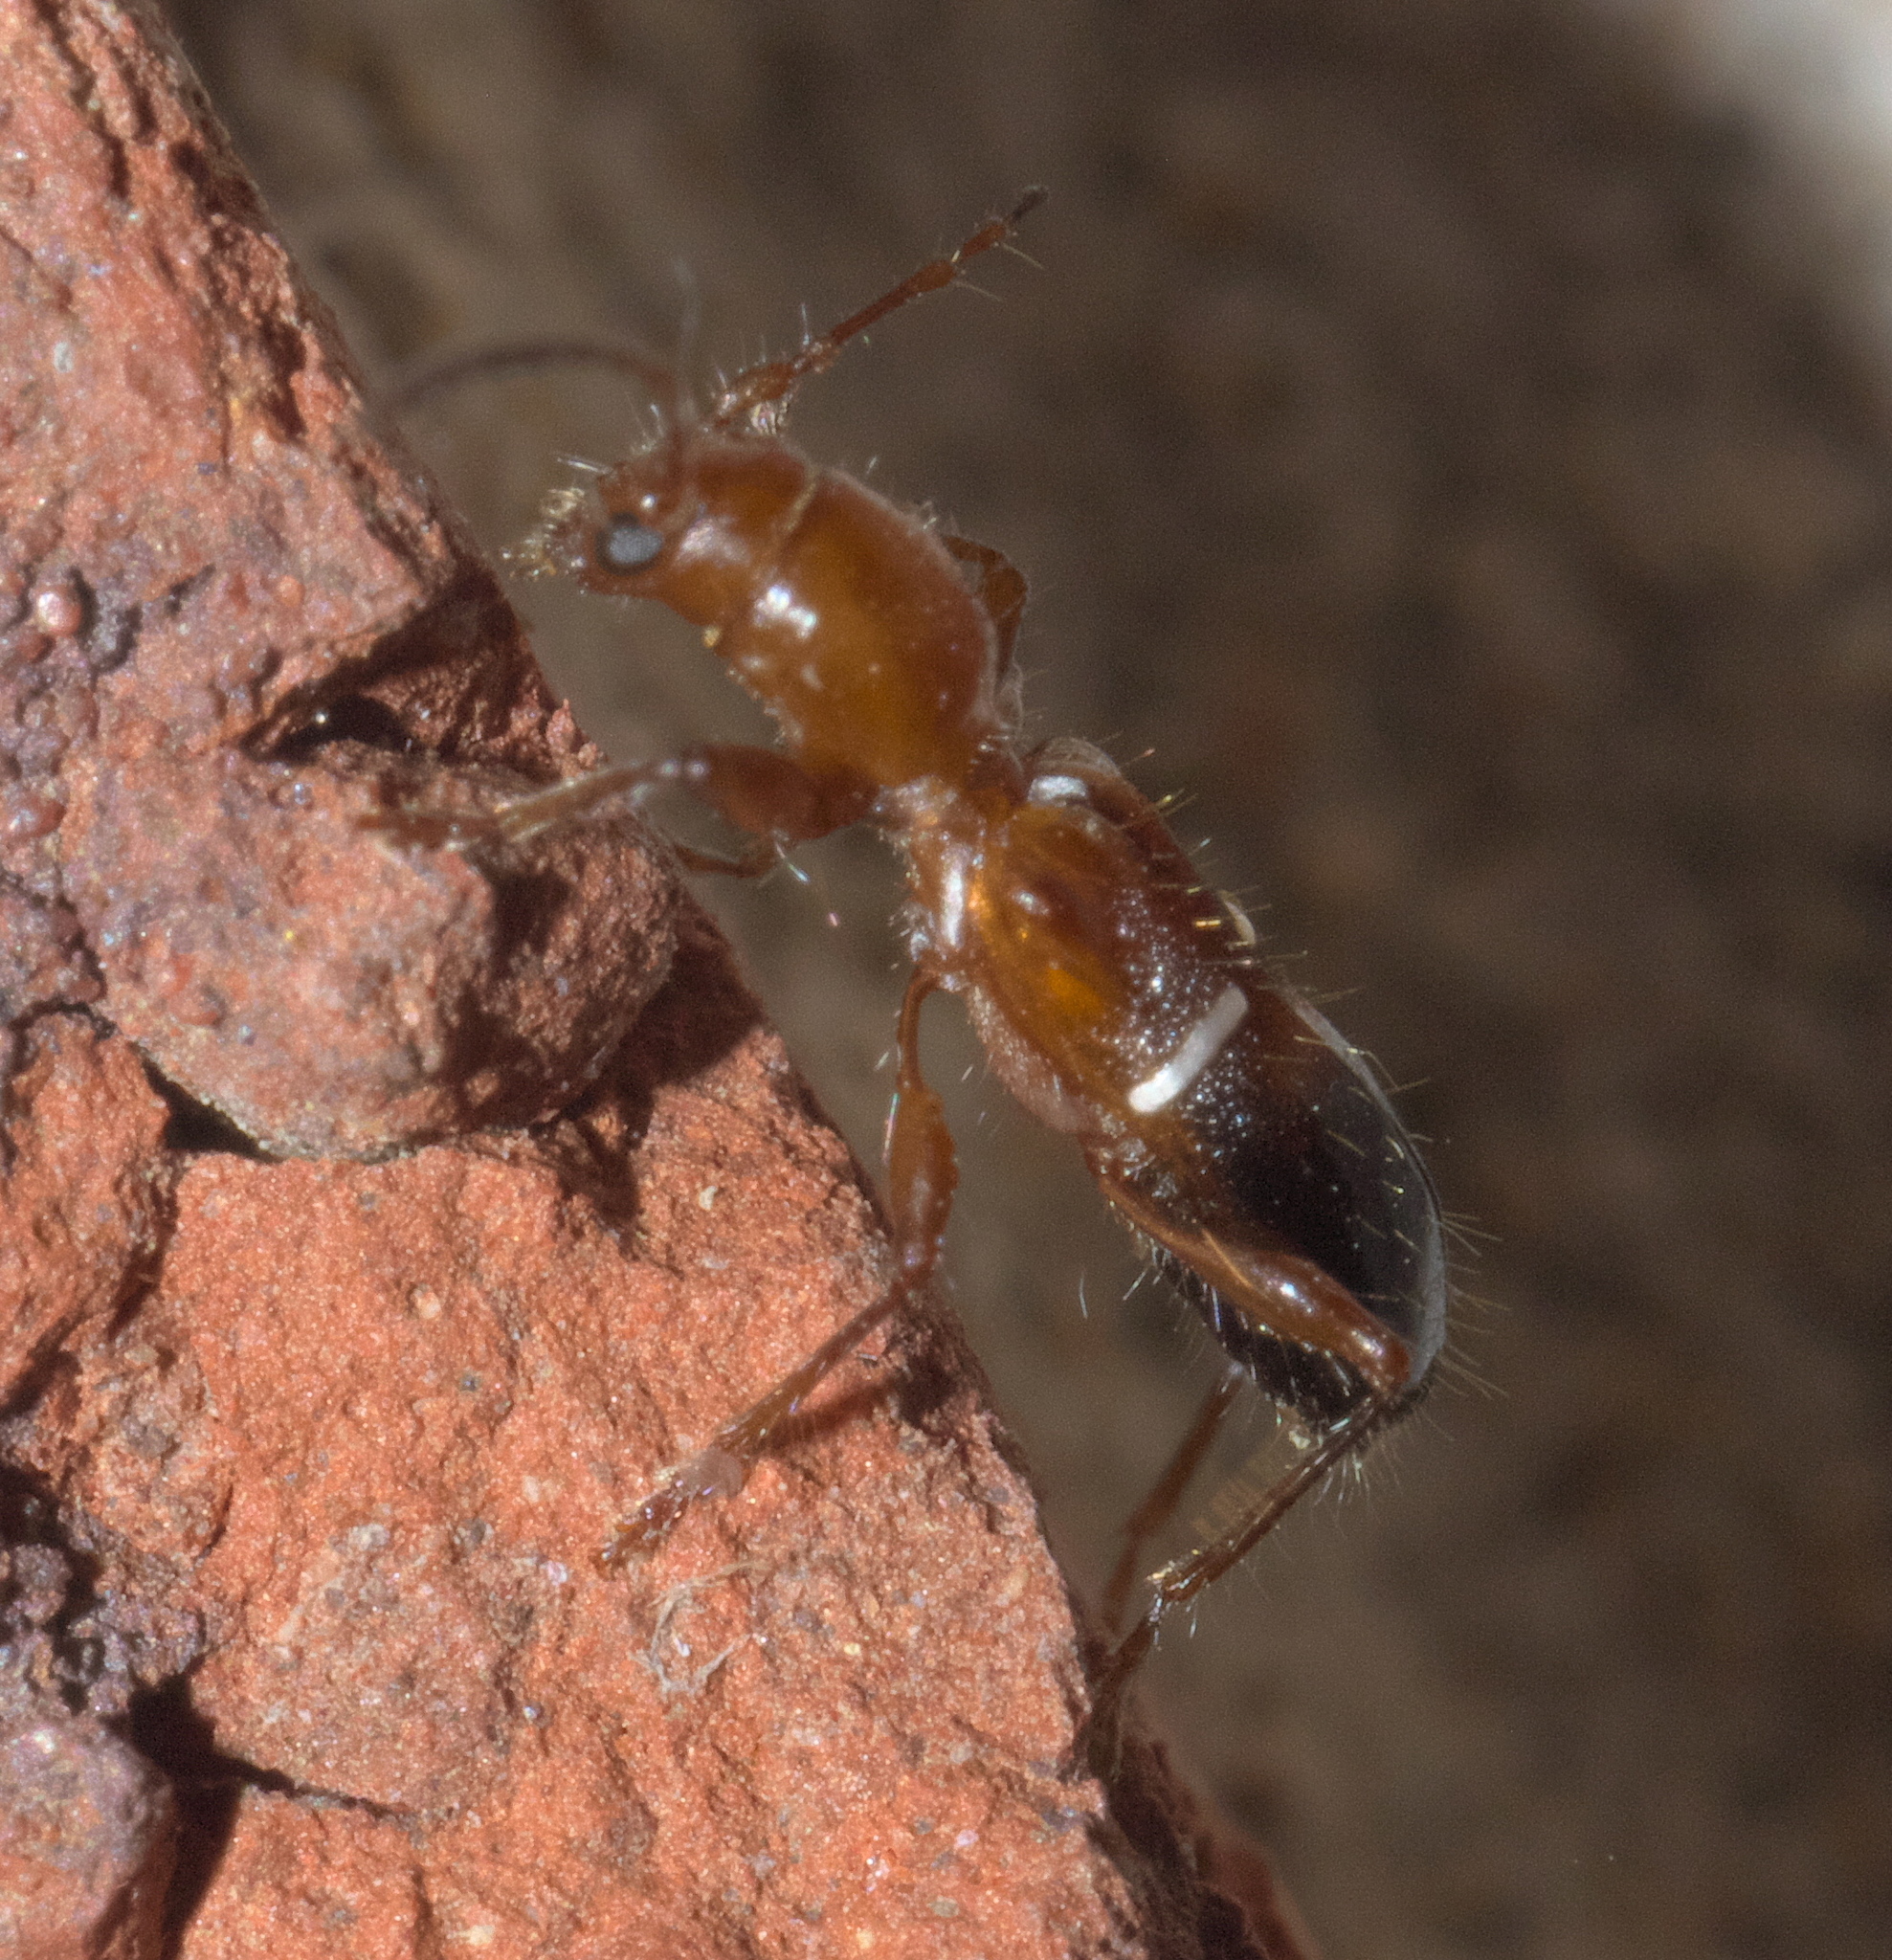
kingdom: Animalia
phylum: Arthropoda
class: Insecta
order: Coleoptera
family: Cerambycidae
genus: Euderces
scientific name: Euderces reichei
